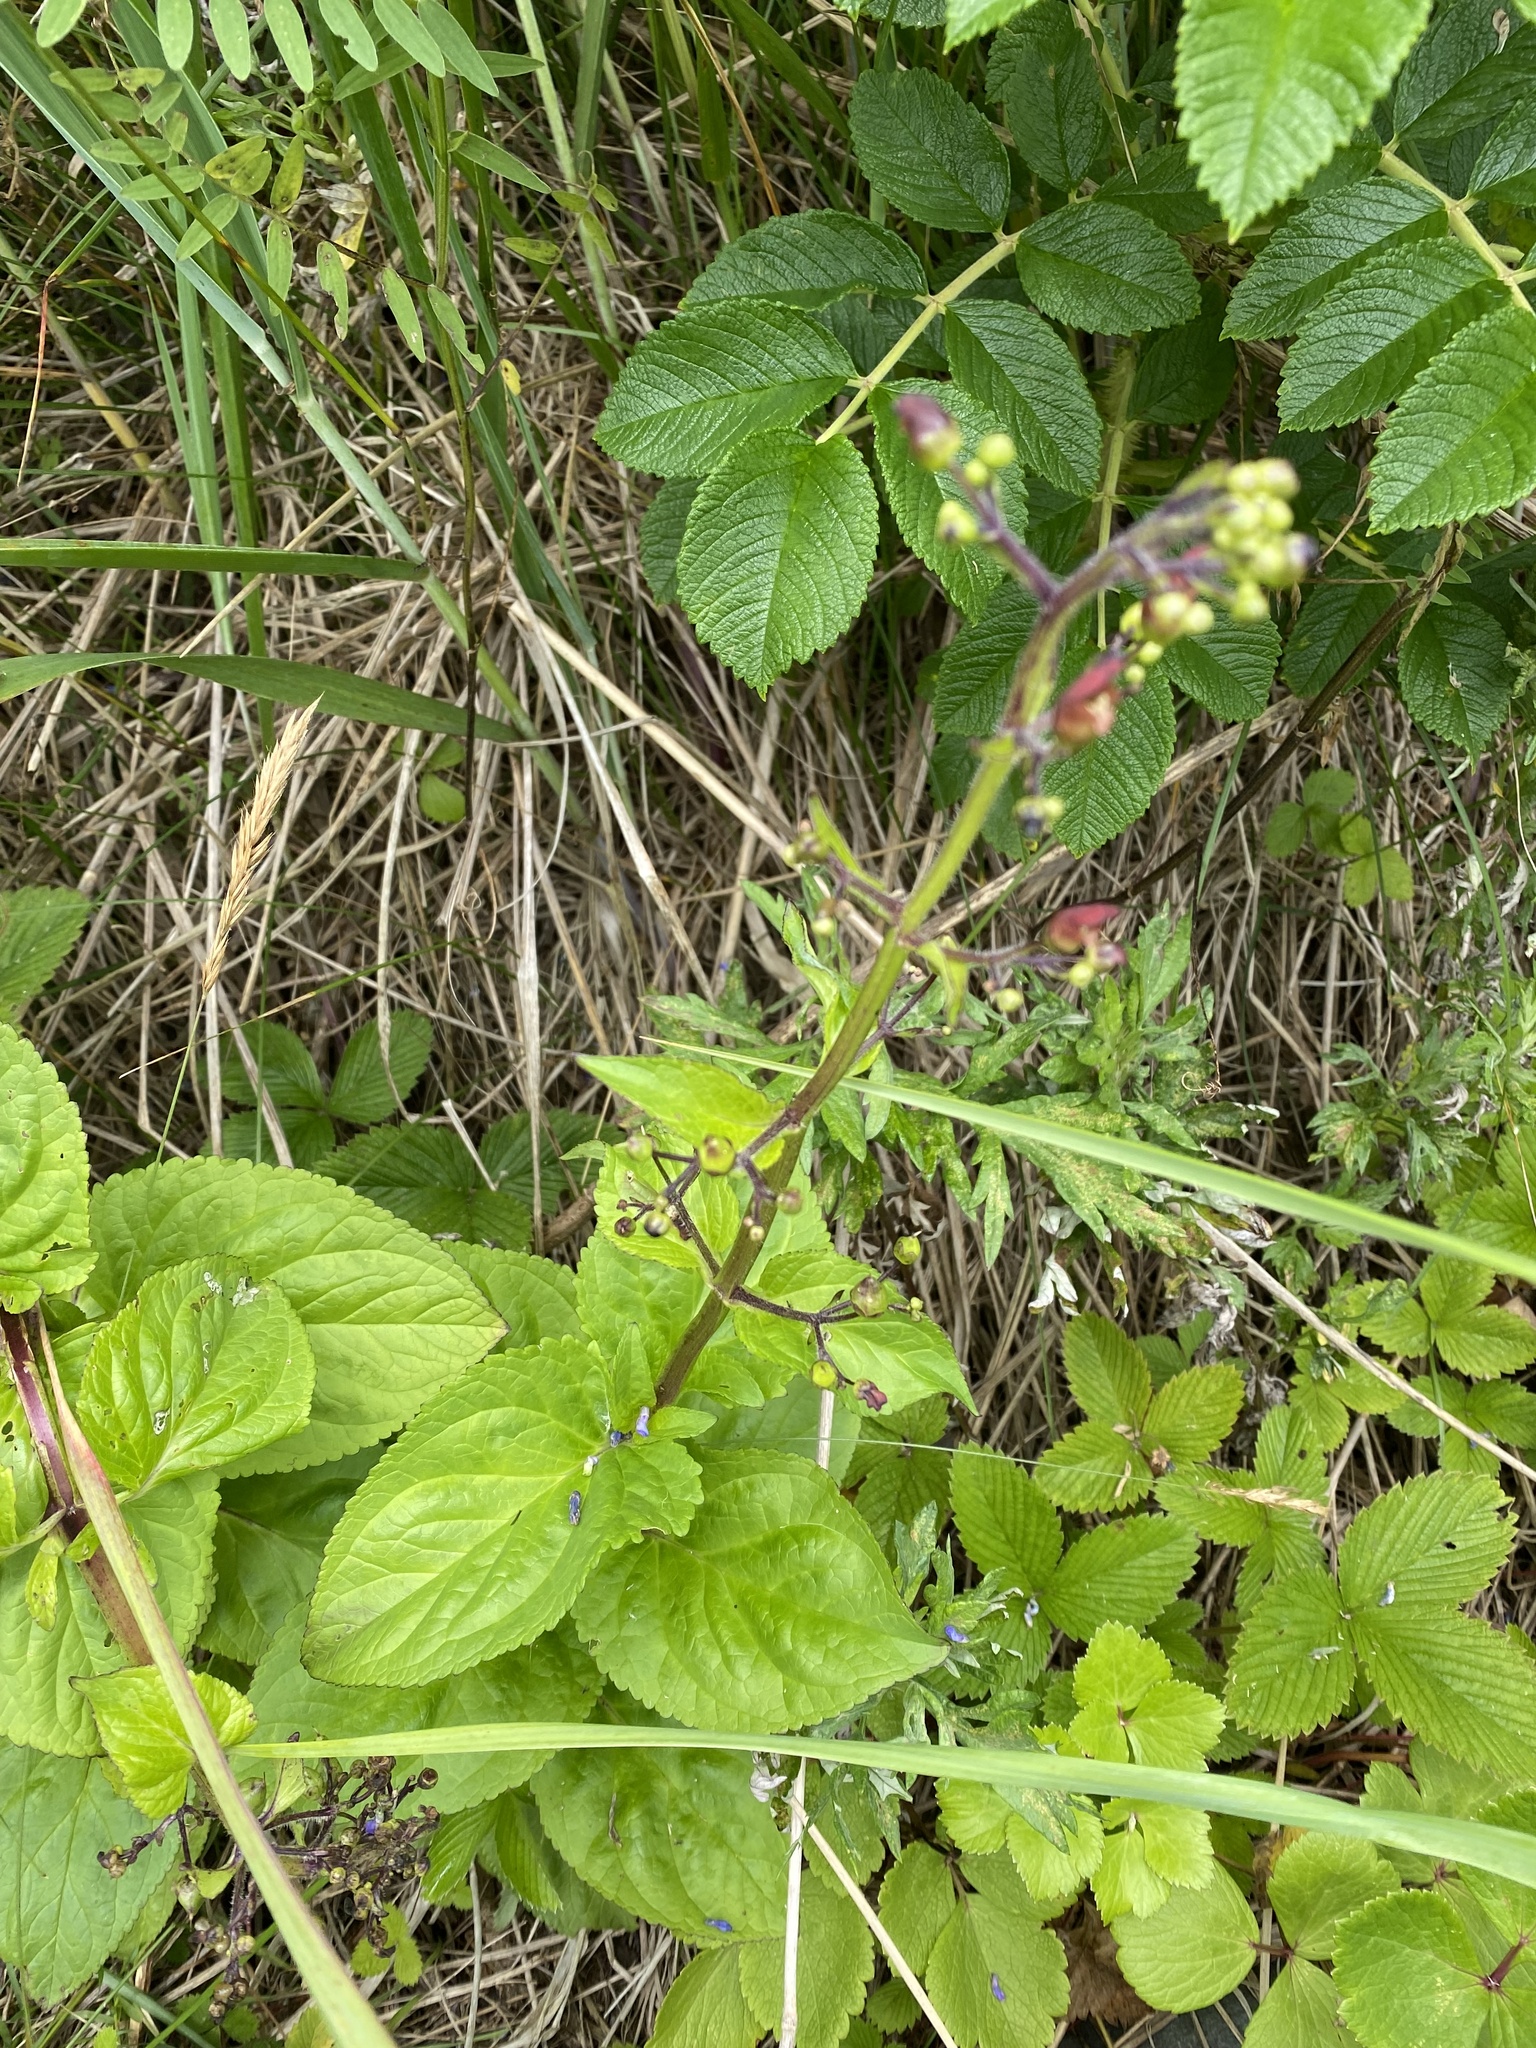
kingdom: Plantae
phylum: Tracheophyta
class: Magnoliopsida
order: Lamiales
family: Scrophulariaceae
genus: Scrophularia
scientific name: Scrophularia alata
